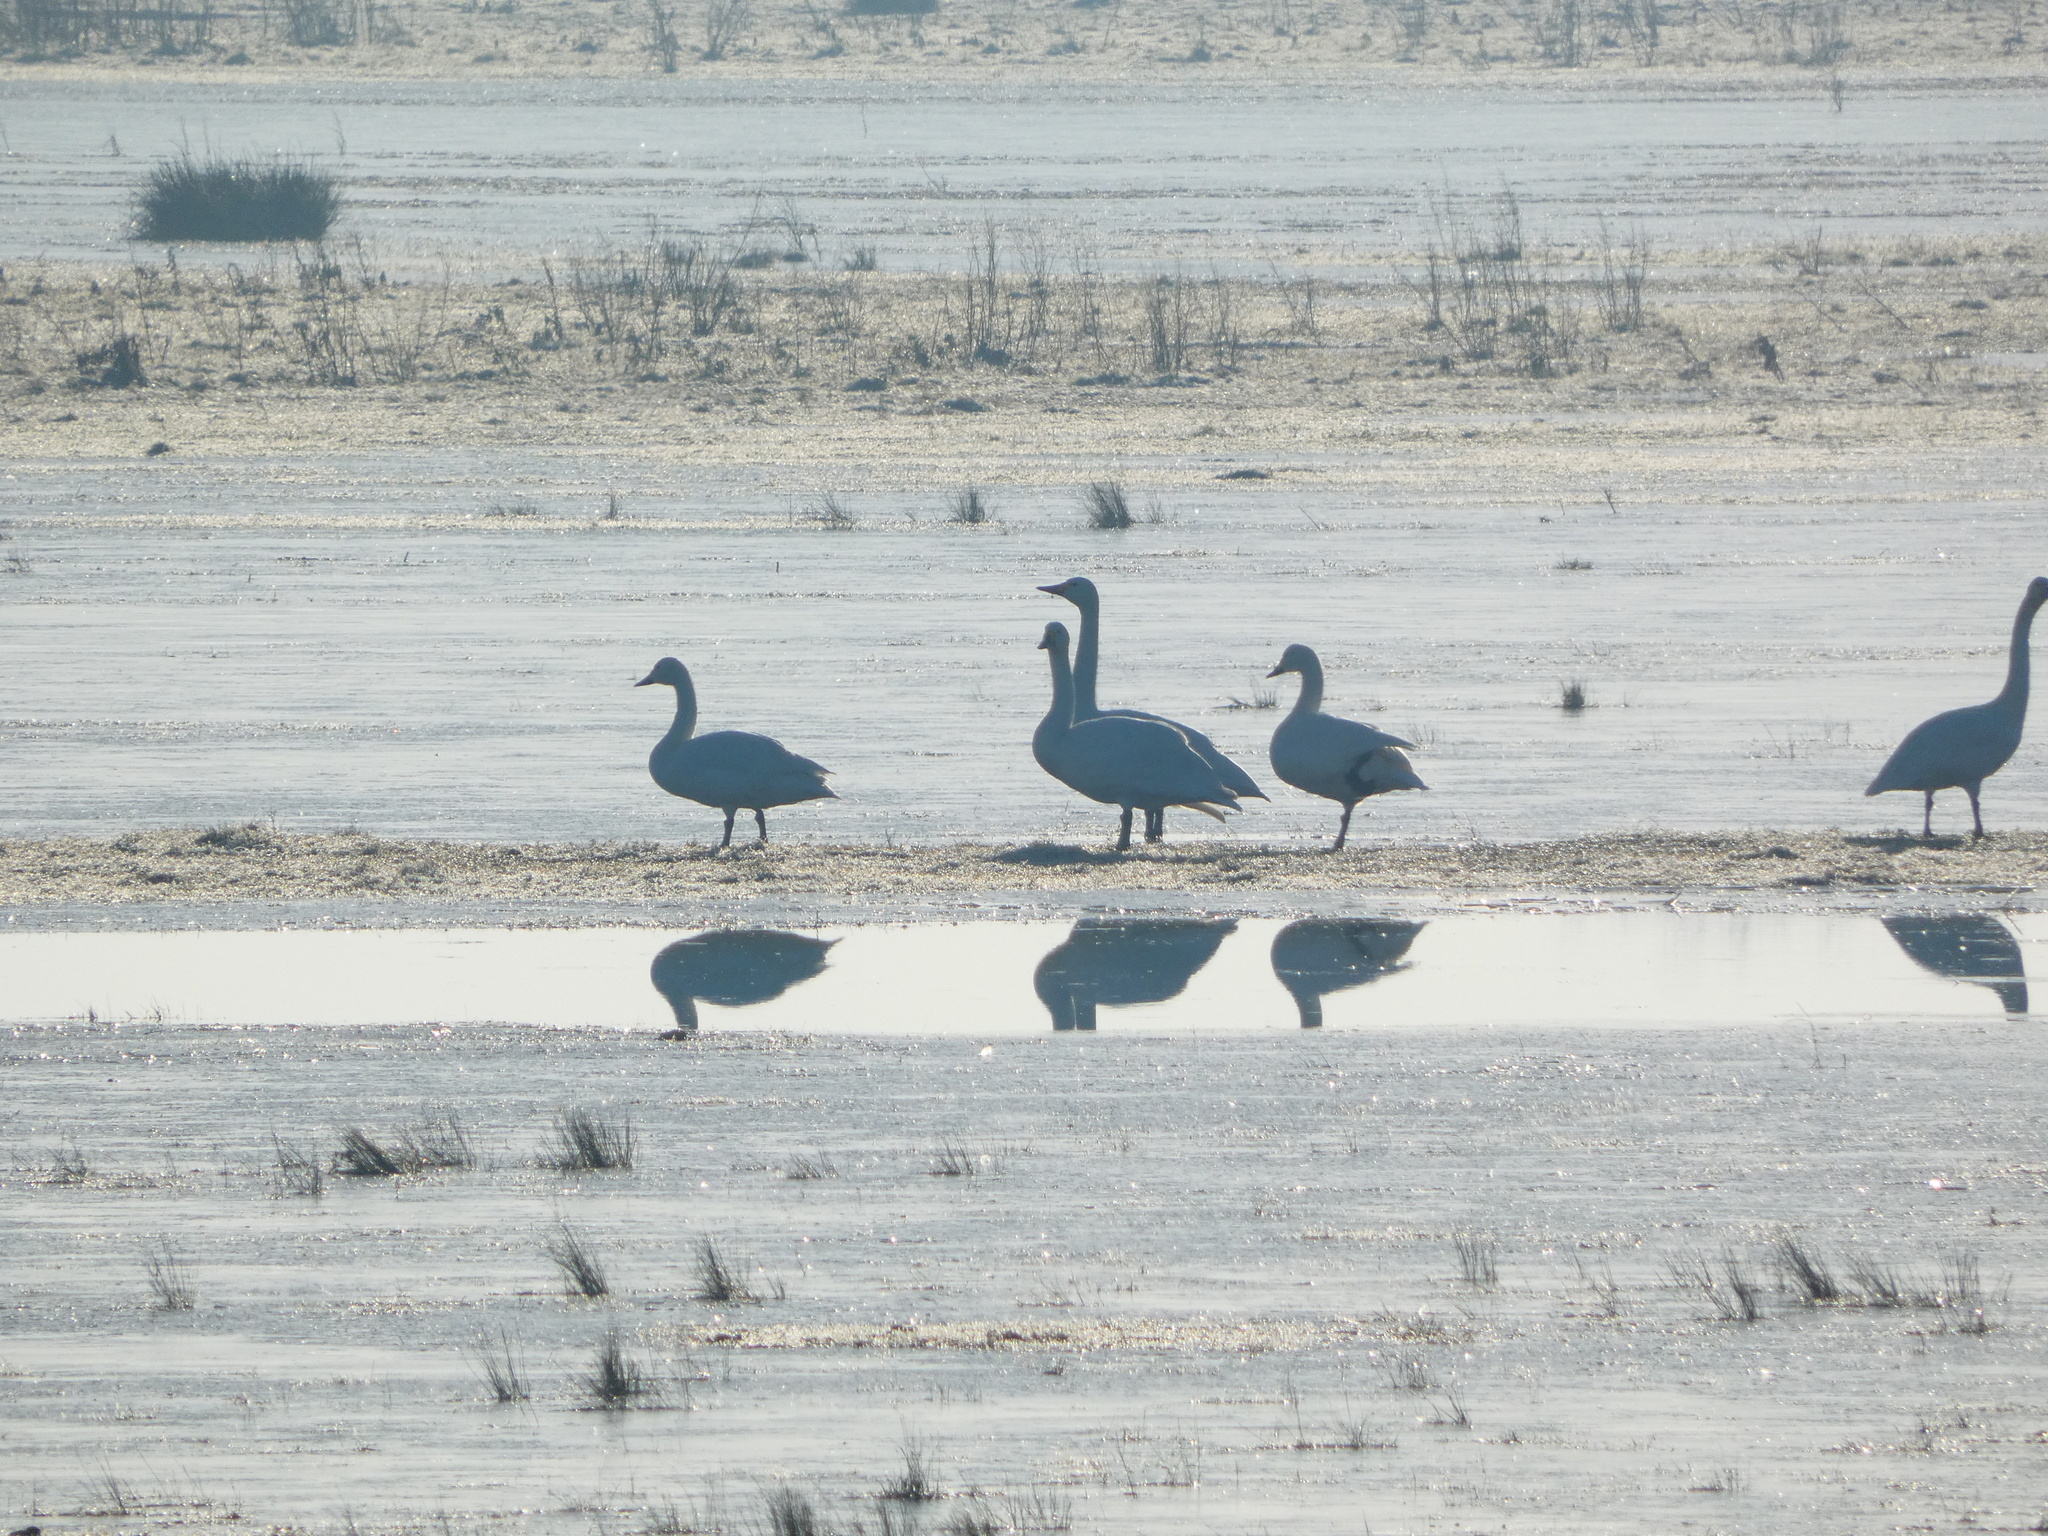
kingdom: Animalia
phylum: Chordata
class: Aves
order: Anseriformes
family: Anatidae
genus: Cygnus
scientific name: Cygnus columbianus
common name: Tundra swan
